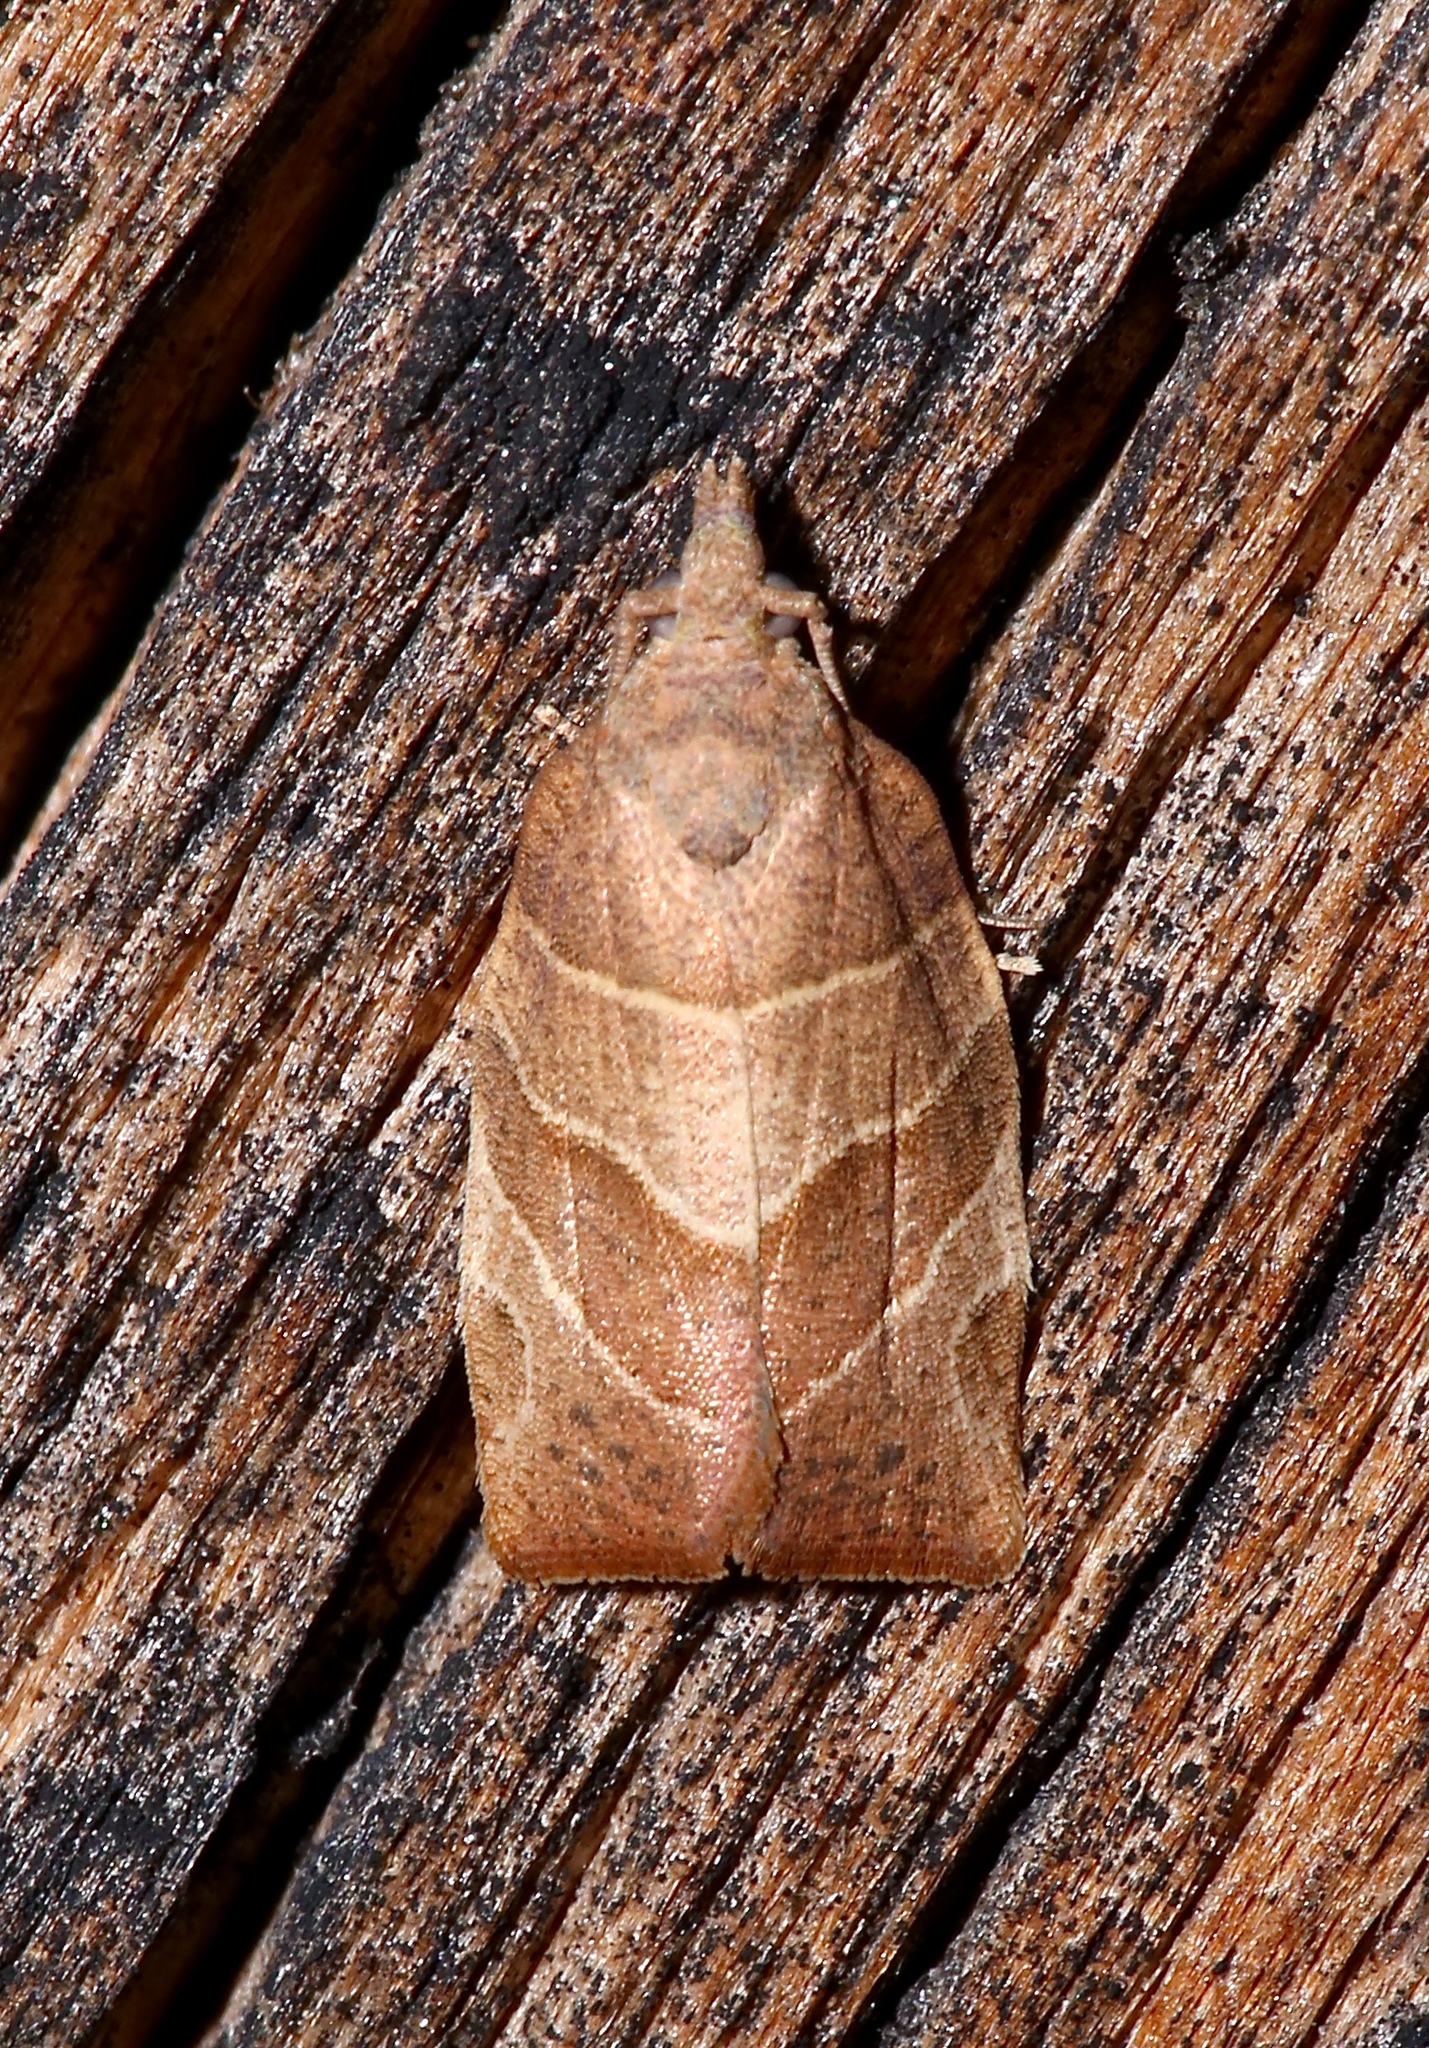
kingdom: Animalia
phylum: Arthropoda
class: Insecta
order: Lepidoptera
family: Tortricidae
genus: Pandemis
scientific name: Pandemis limitata
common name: Three-lined leafroller moth
